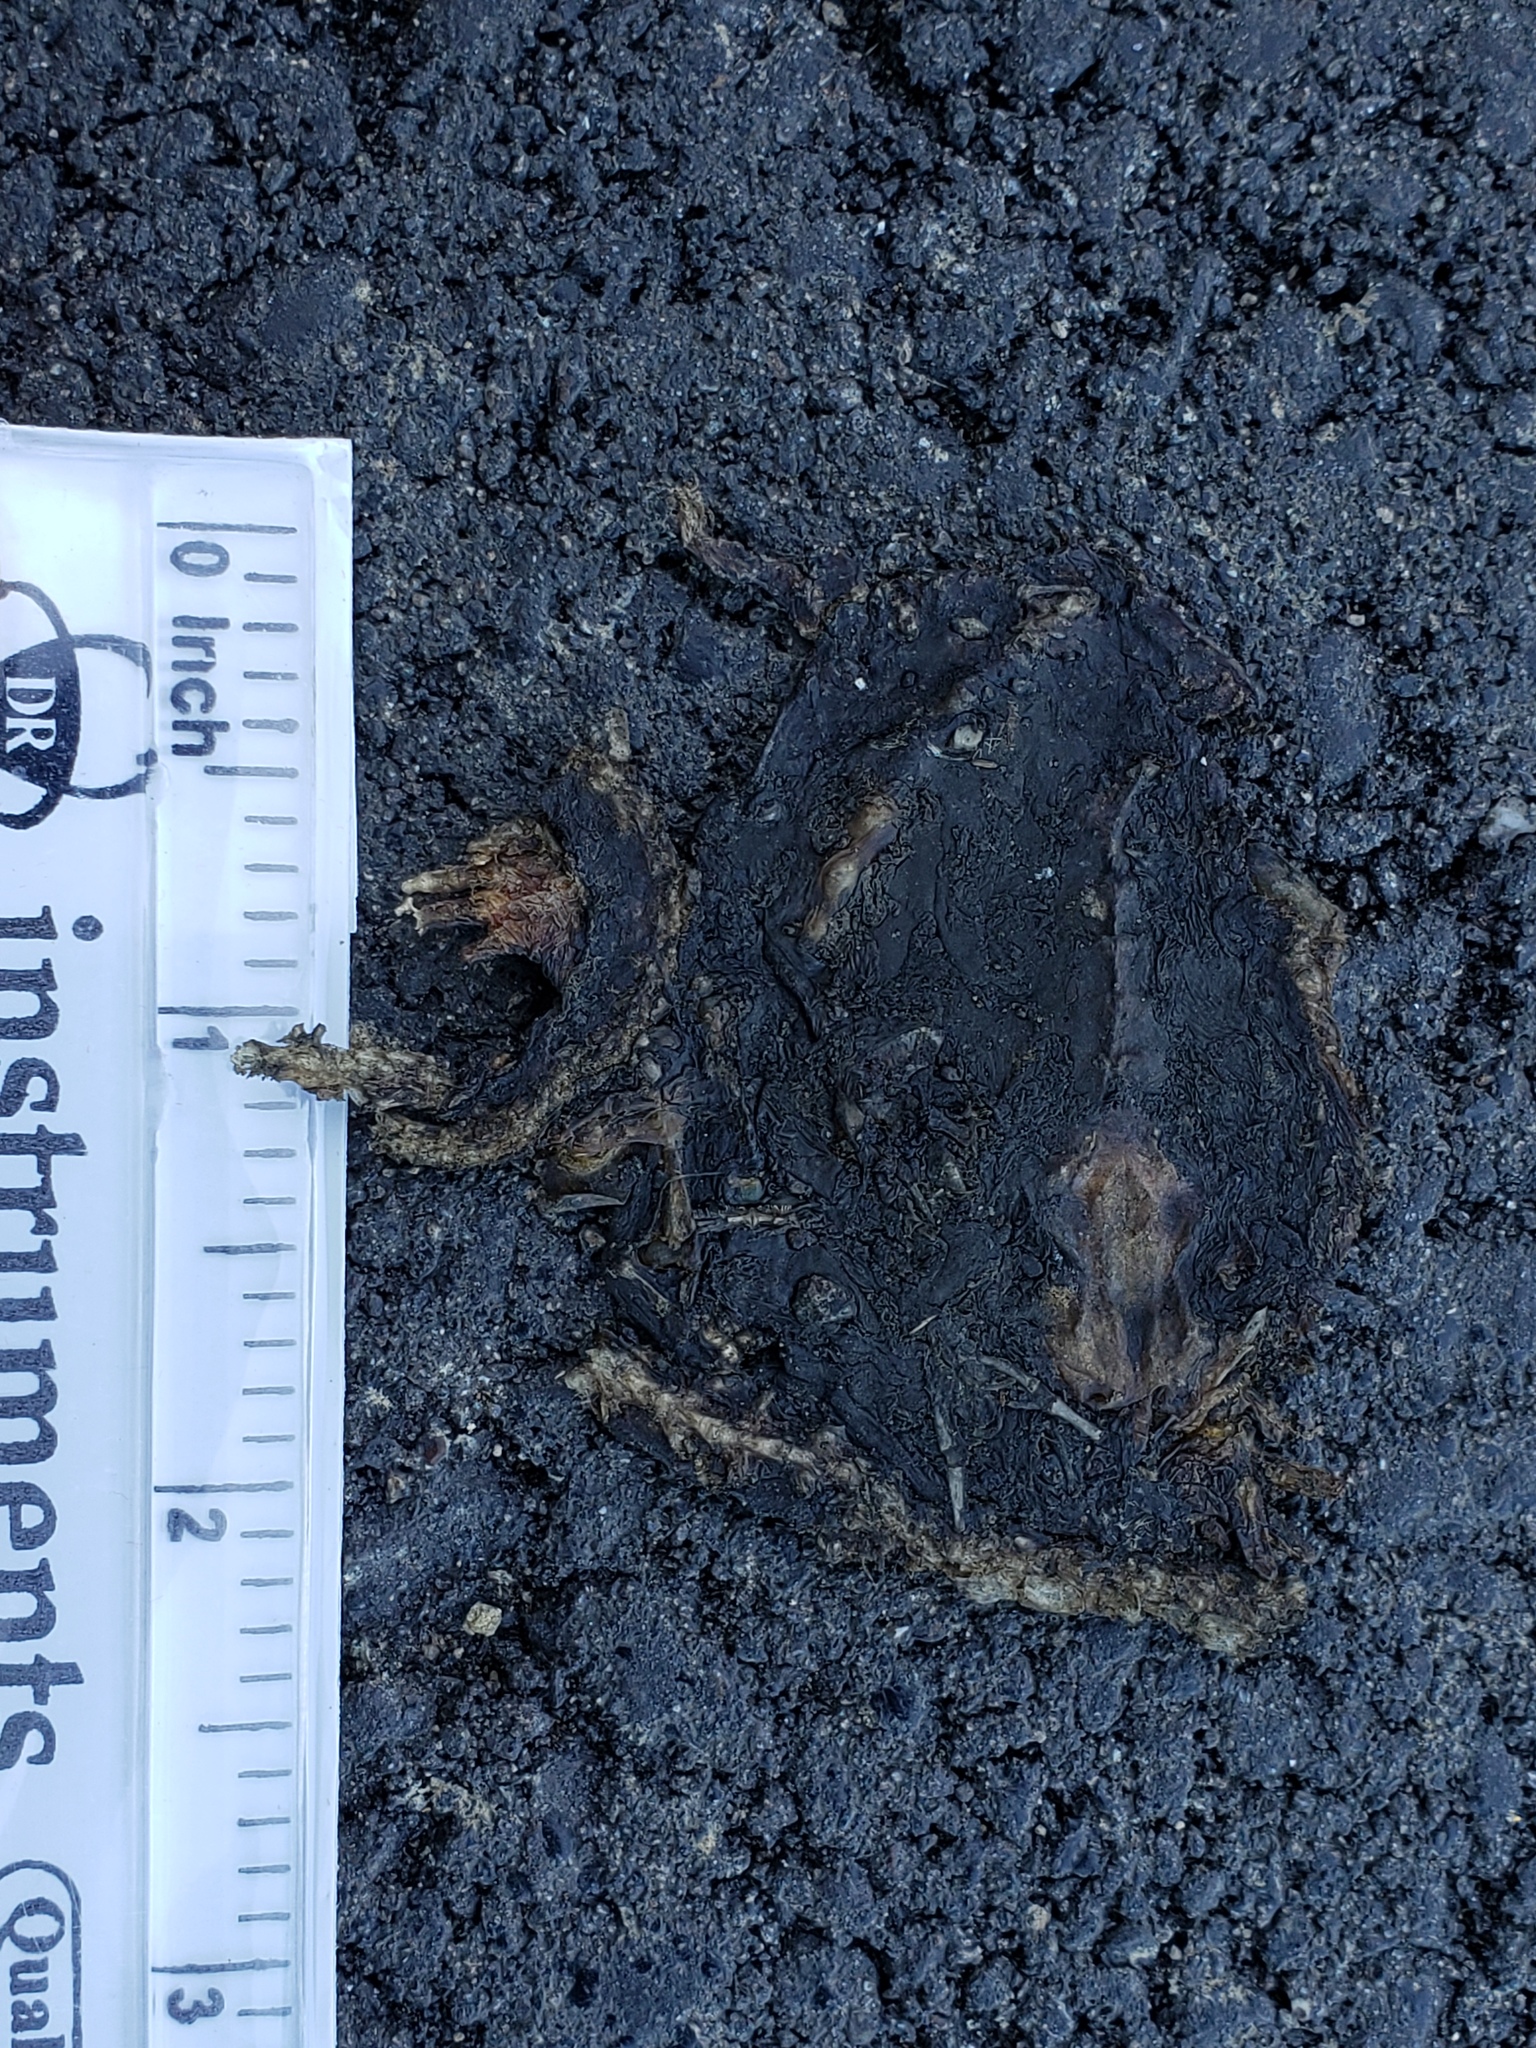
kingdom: Animalia
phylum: Chordata
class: Amphibia
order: Caudata
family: Salamandridae
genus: Taricha
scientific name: Taricha
